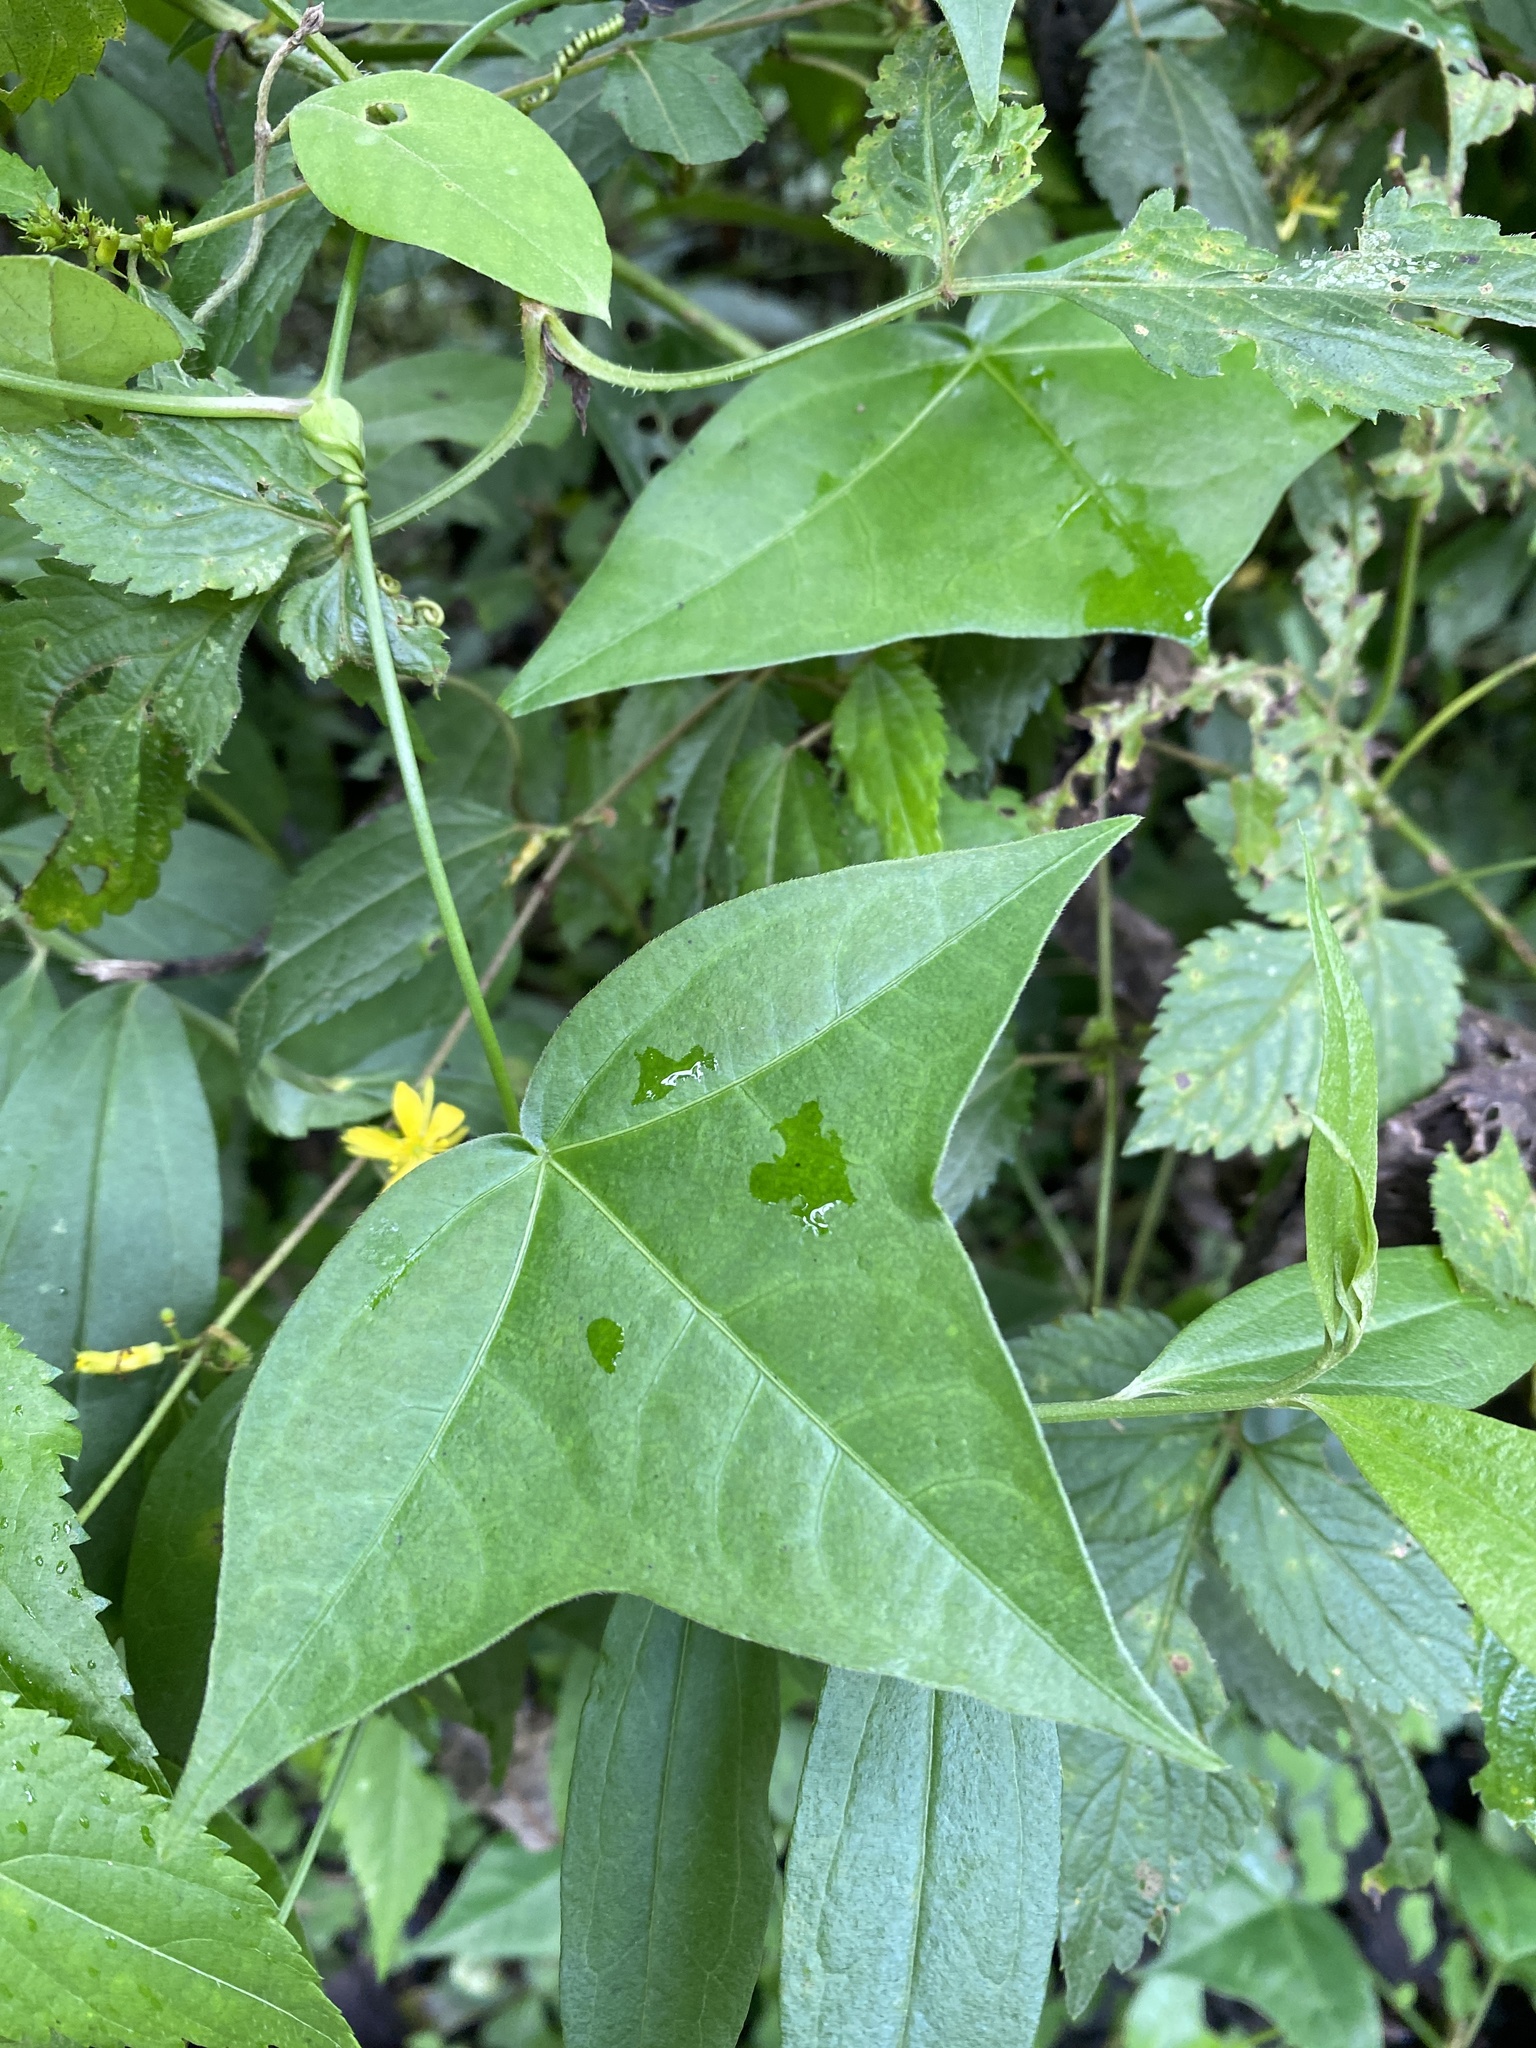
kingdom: Plantae
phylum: Tracheophyta
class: Magnoliopsida
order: Malpighiales
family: Passifloraceae
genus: Passiflora
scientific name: Passiflora eglandulosa
